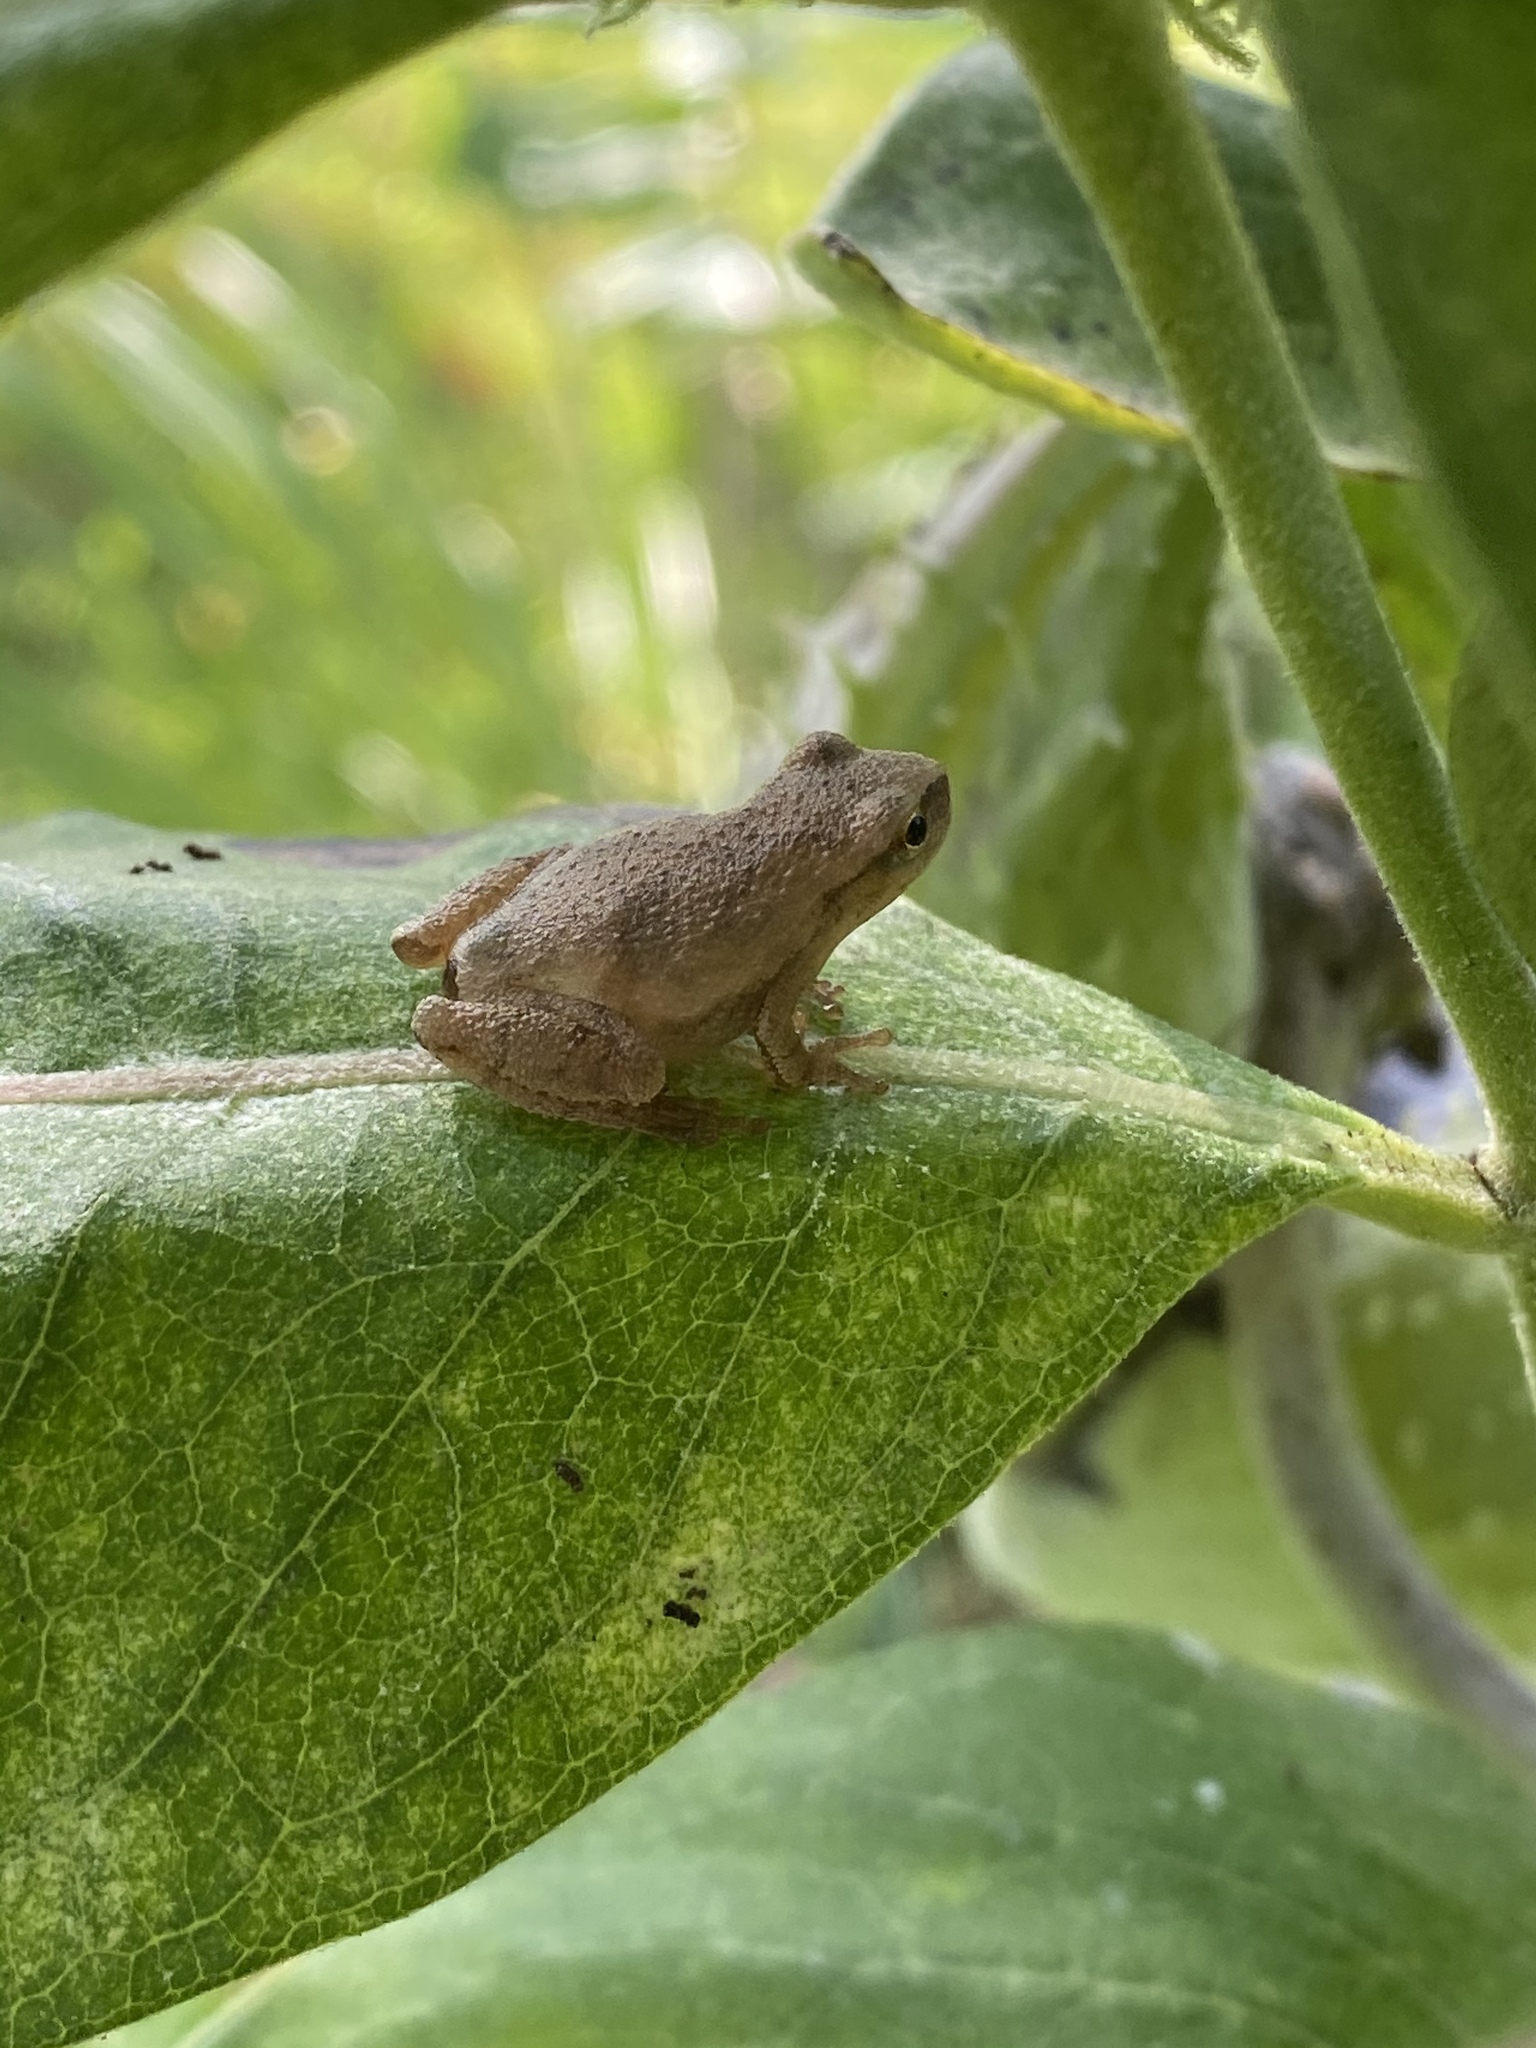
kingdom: Animalia
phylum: Chordata
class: Amphibia
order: Anura
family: Hylidae
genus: Pseudacris
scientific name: Pseudacris crucifer
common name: Spring peeper
